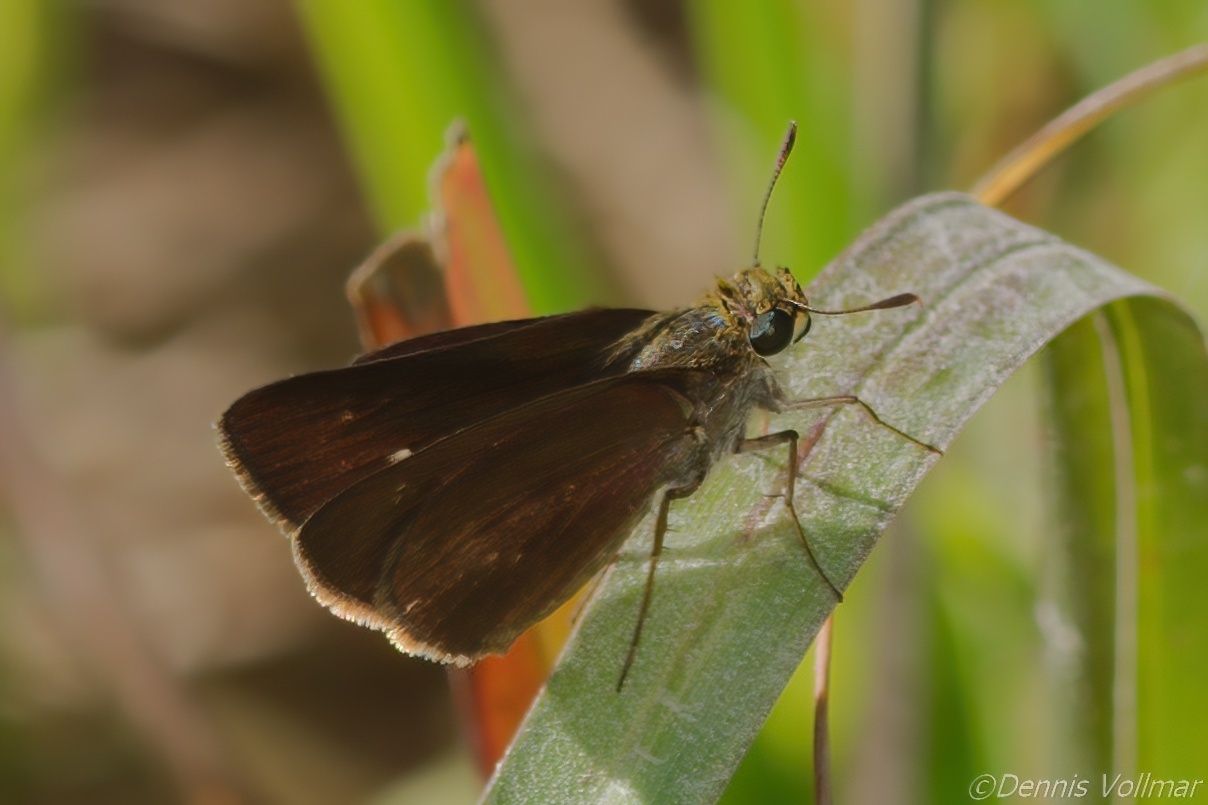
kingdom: Animalia
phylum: Arthropoda
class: Insecta
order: Lepidoptera
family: Hesperiidae
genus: Euphyes
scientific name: Euphyes vestris
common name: Dun skipper
